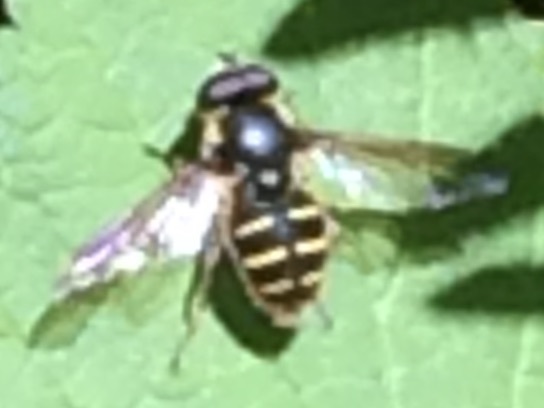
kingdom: Animalia
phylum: Arthropoda
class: Insecta
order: Diptera
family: Syrphidae
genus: Sericomyia
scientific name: Sericomyia chalcopyga
